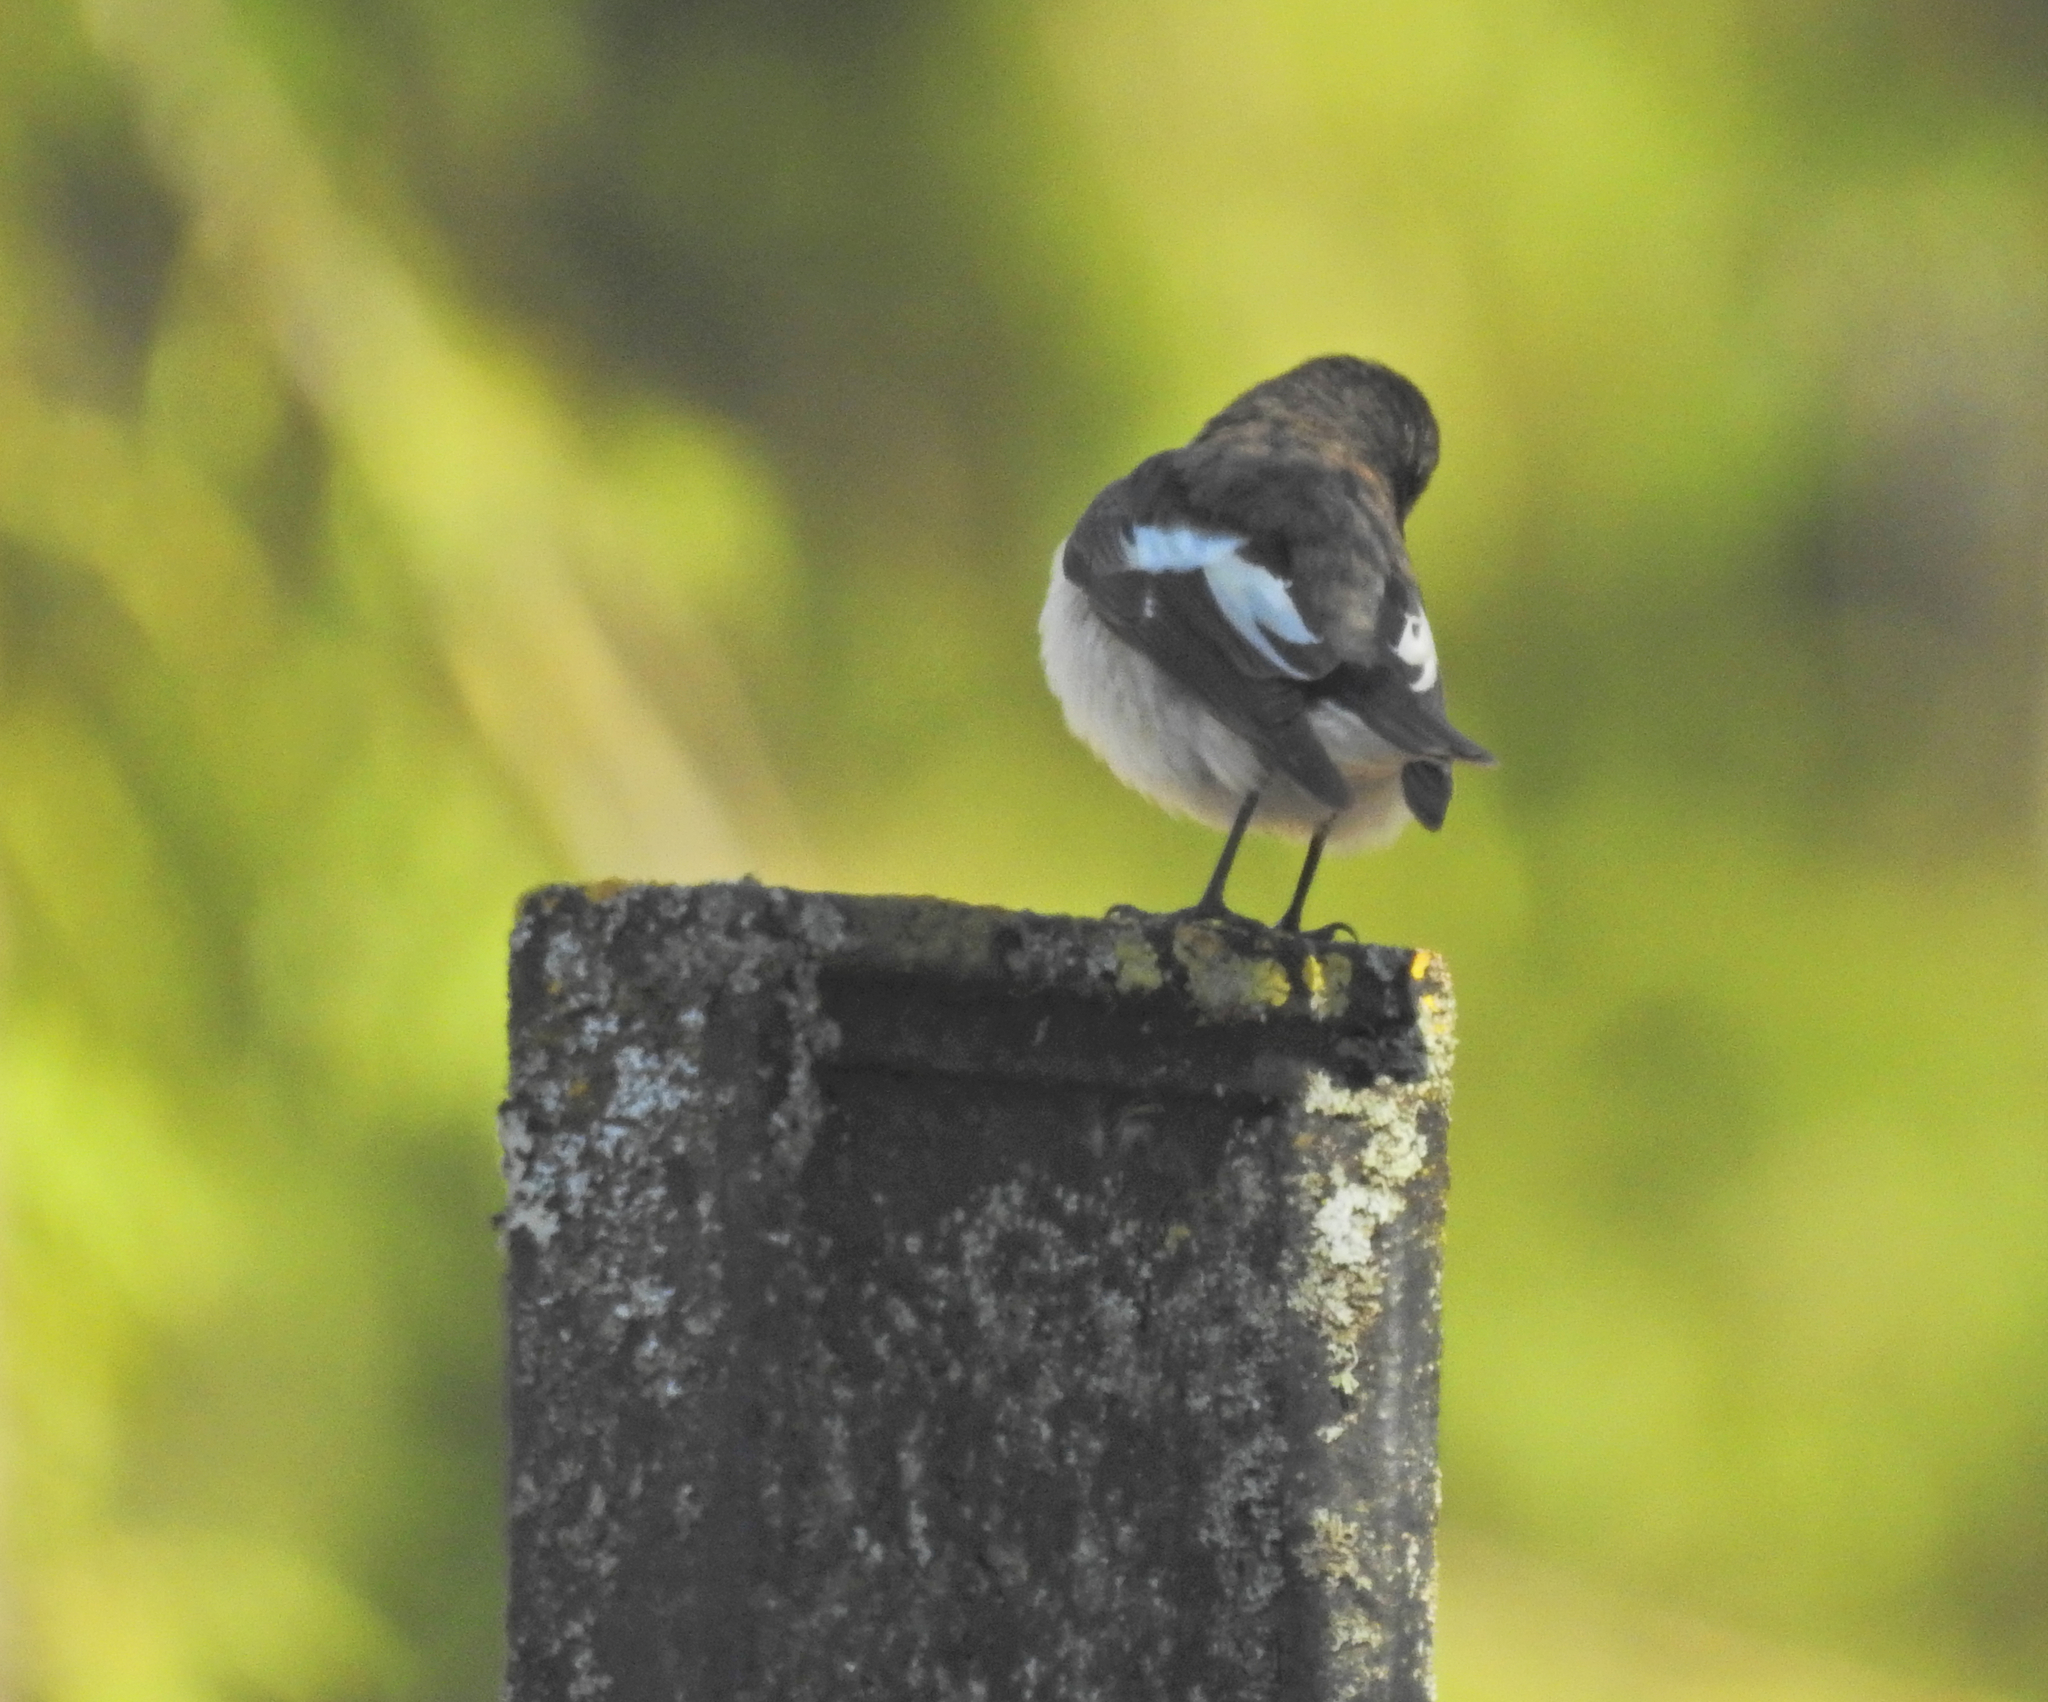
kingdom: Animalia
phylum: Chordata
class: Aves
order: Passeriformes
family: Muscicapidae
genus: Ficedula
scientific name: Ficedula hypoleuca
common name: European pied flycatcher
